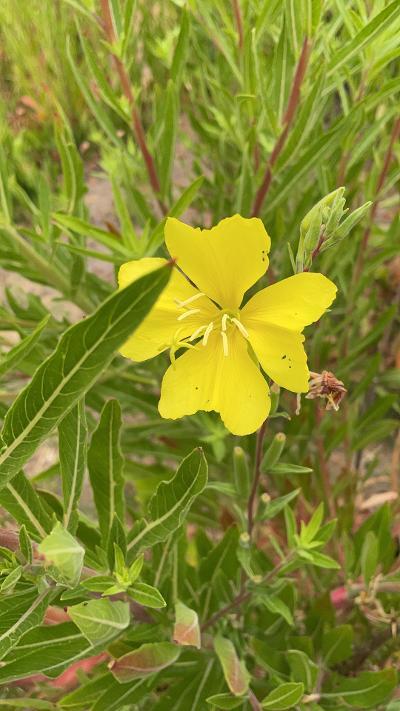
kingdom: Plantae
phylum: Tracheophyta
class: Magnoliopsida
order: Myrtales
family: Onagraceae
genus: Oenothera
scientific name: Oenothera elata
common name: Hooker's evening-primrose
